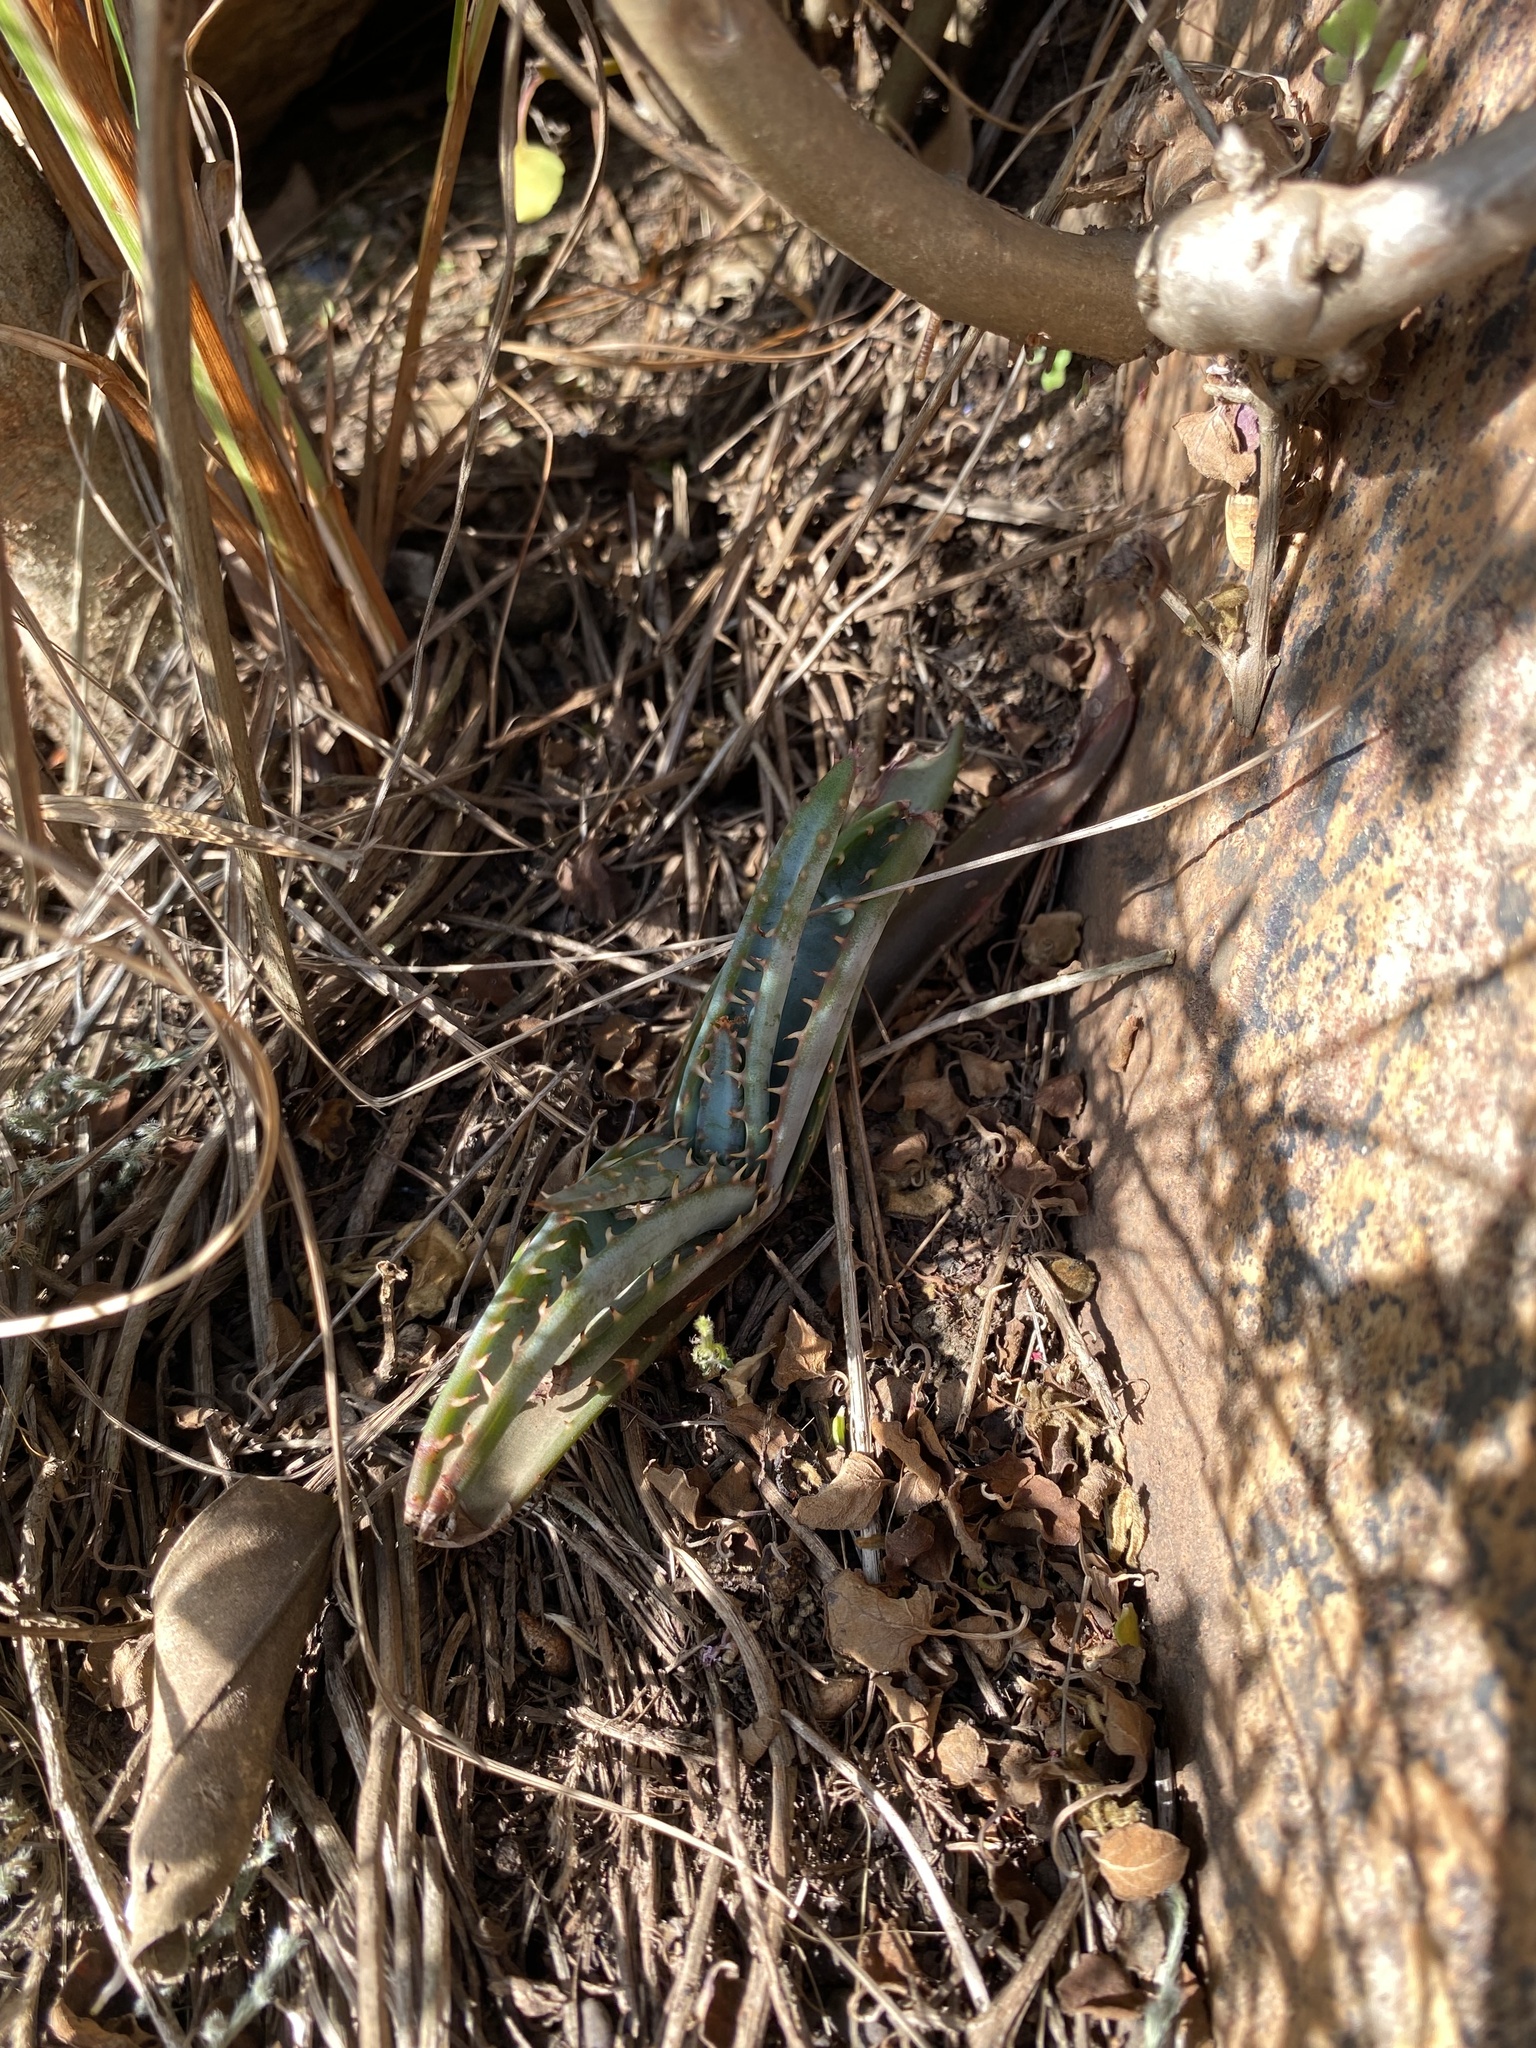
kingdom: Plantae
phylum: Tracheophyta
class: Liliopsida
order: Asparagales
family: Asphodelaceae
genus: Aloe
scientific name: Aloe suprafoliata
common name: Book aloe
